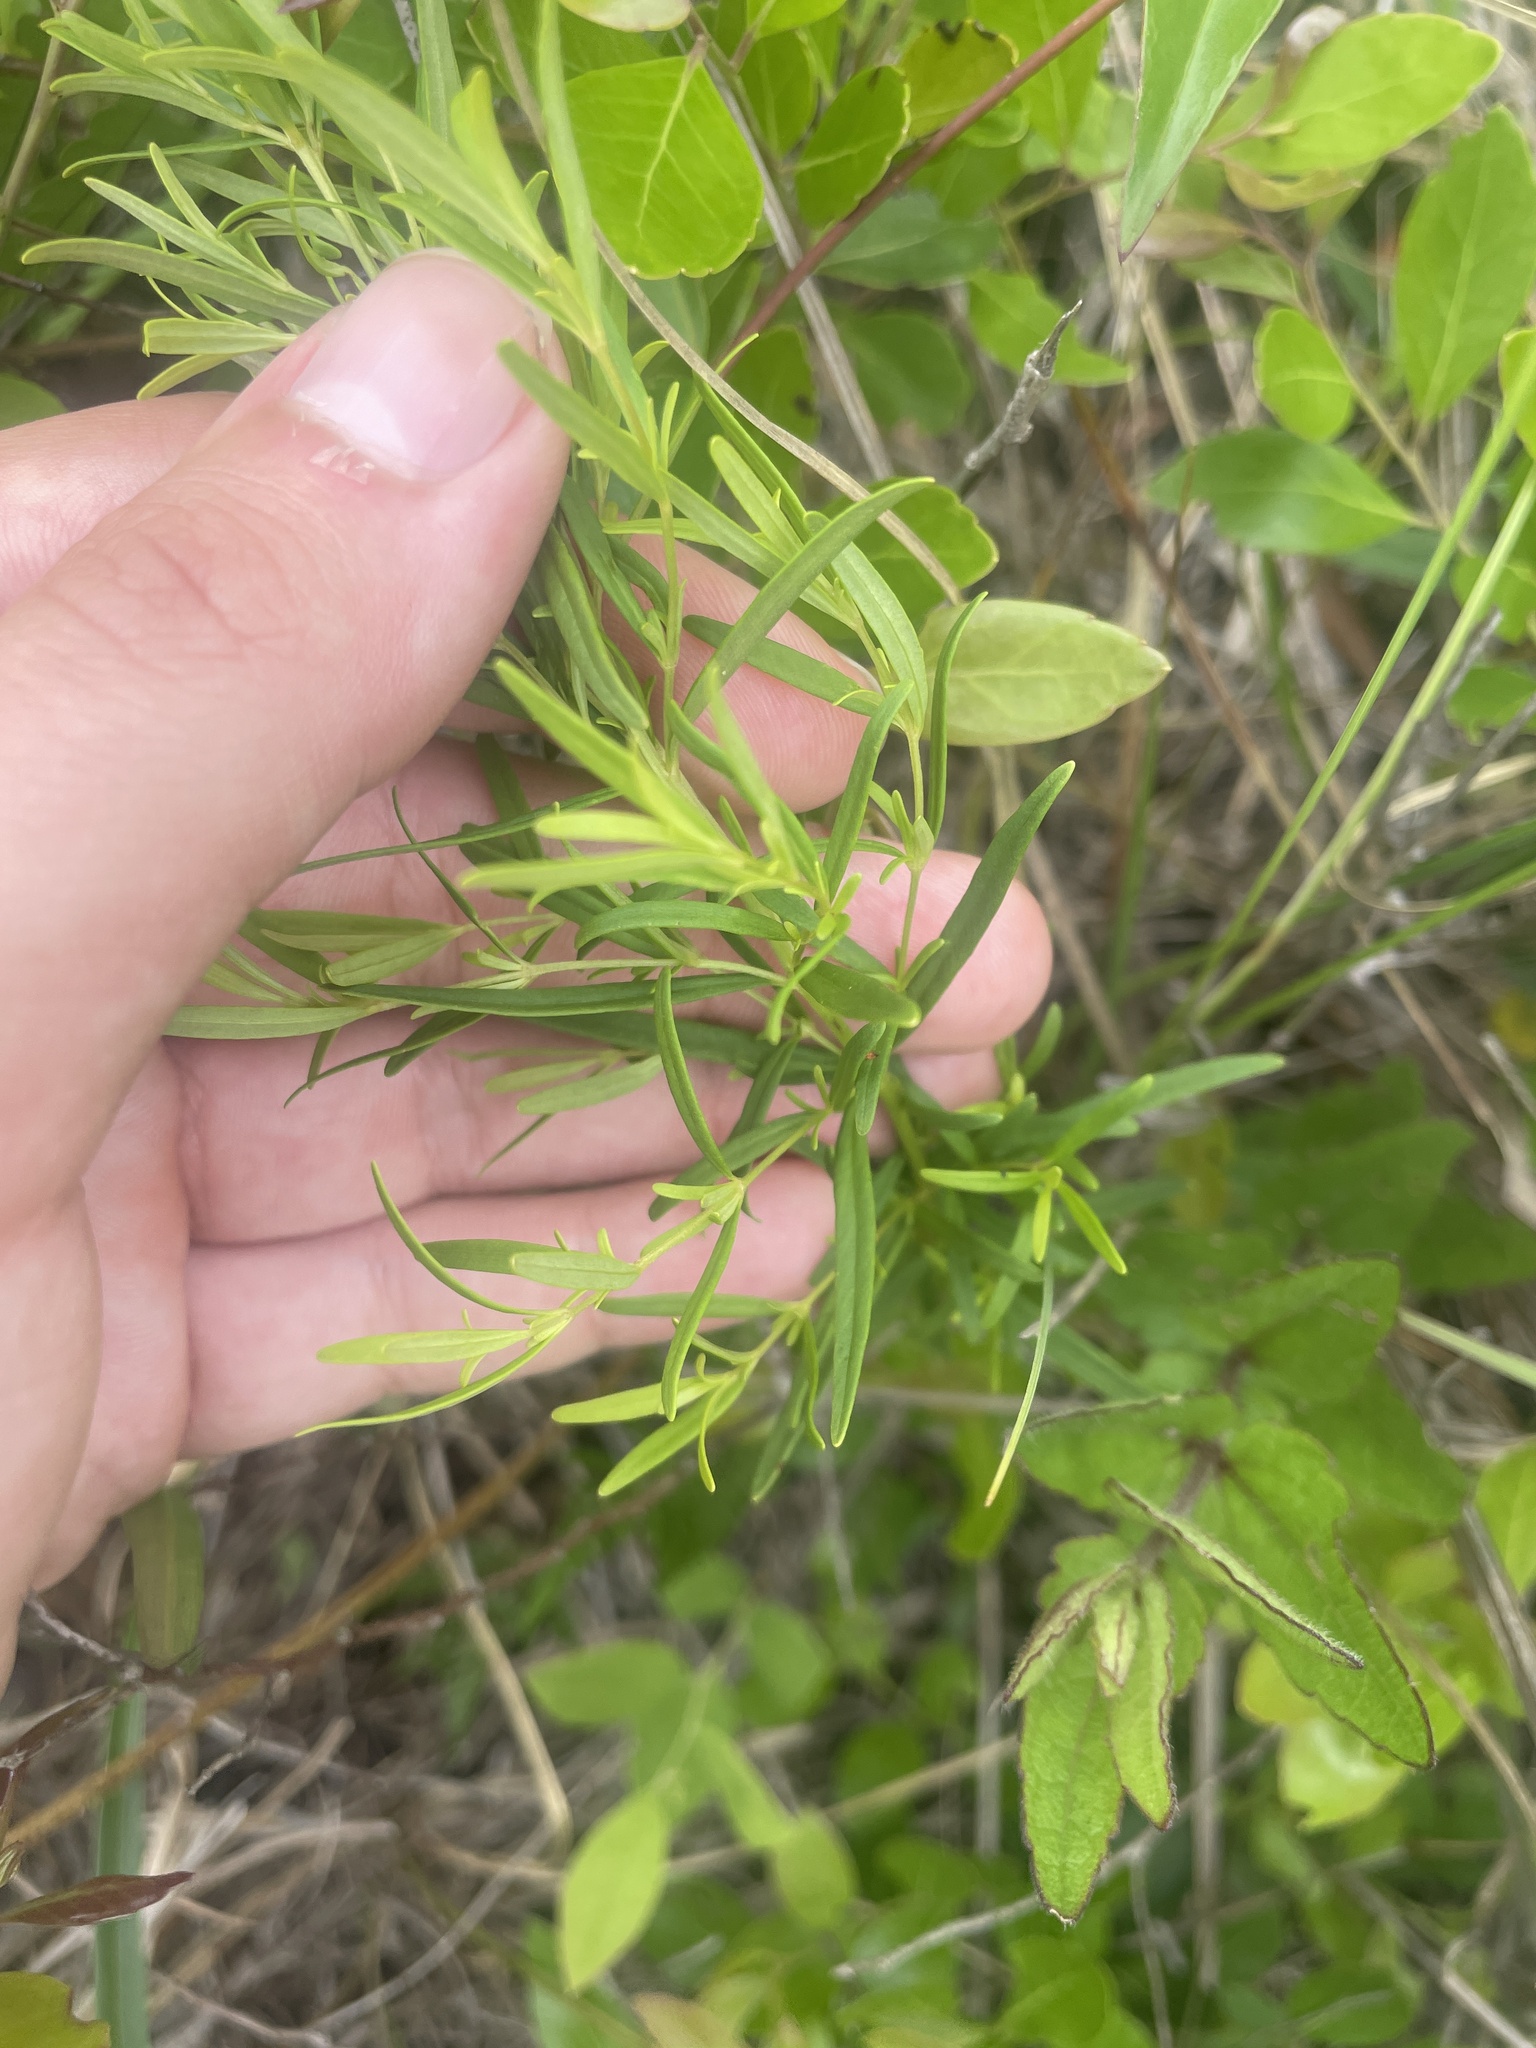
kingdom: Plantae
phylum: Tracheophyta
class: Magnoliopsida
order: Ericales
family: Primulaceae
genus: Lysimachia
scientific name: Lysimachia loomisii
